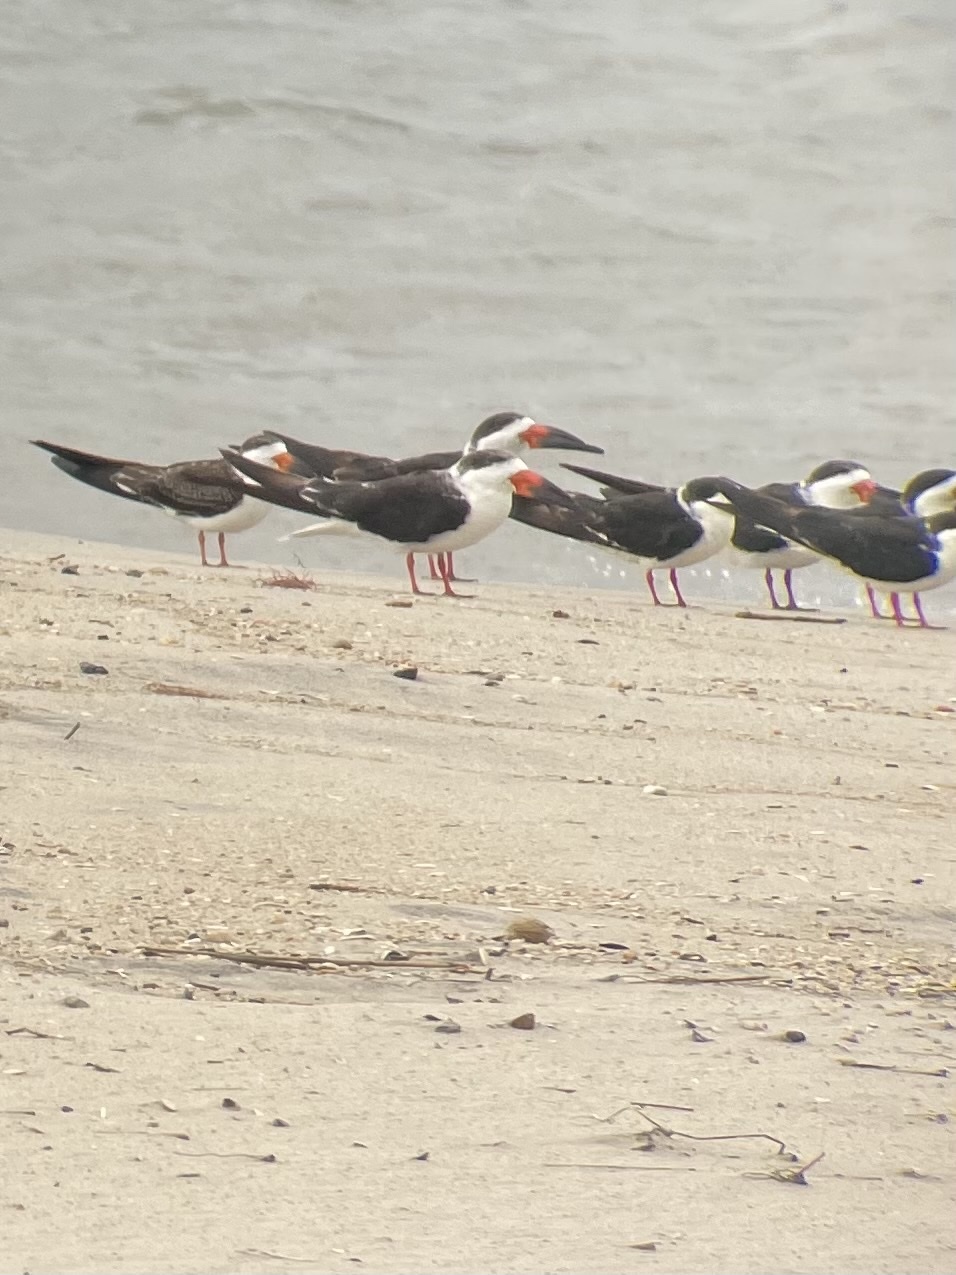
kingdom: Animalia
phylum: Chordata
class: Aves
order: Charadriiformes
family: Laridae
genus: Rynchops
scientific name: Rynchops niger
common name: Black skimmer
